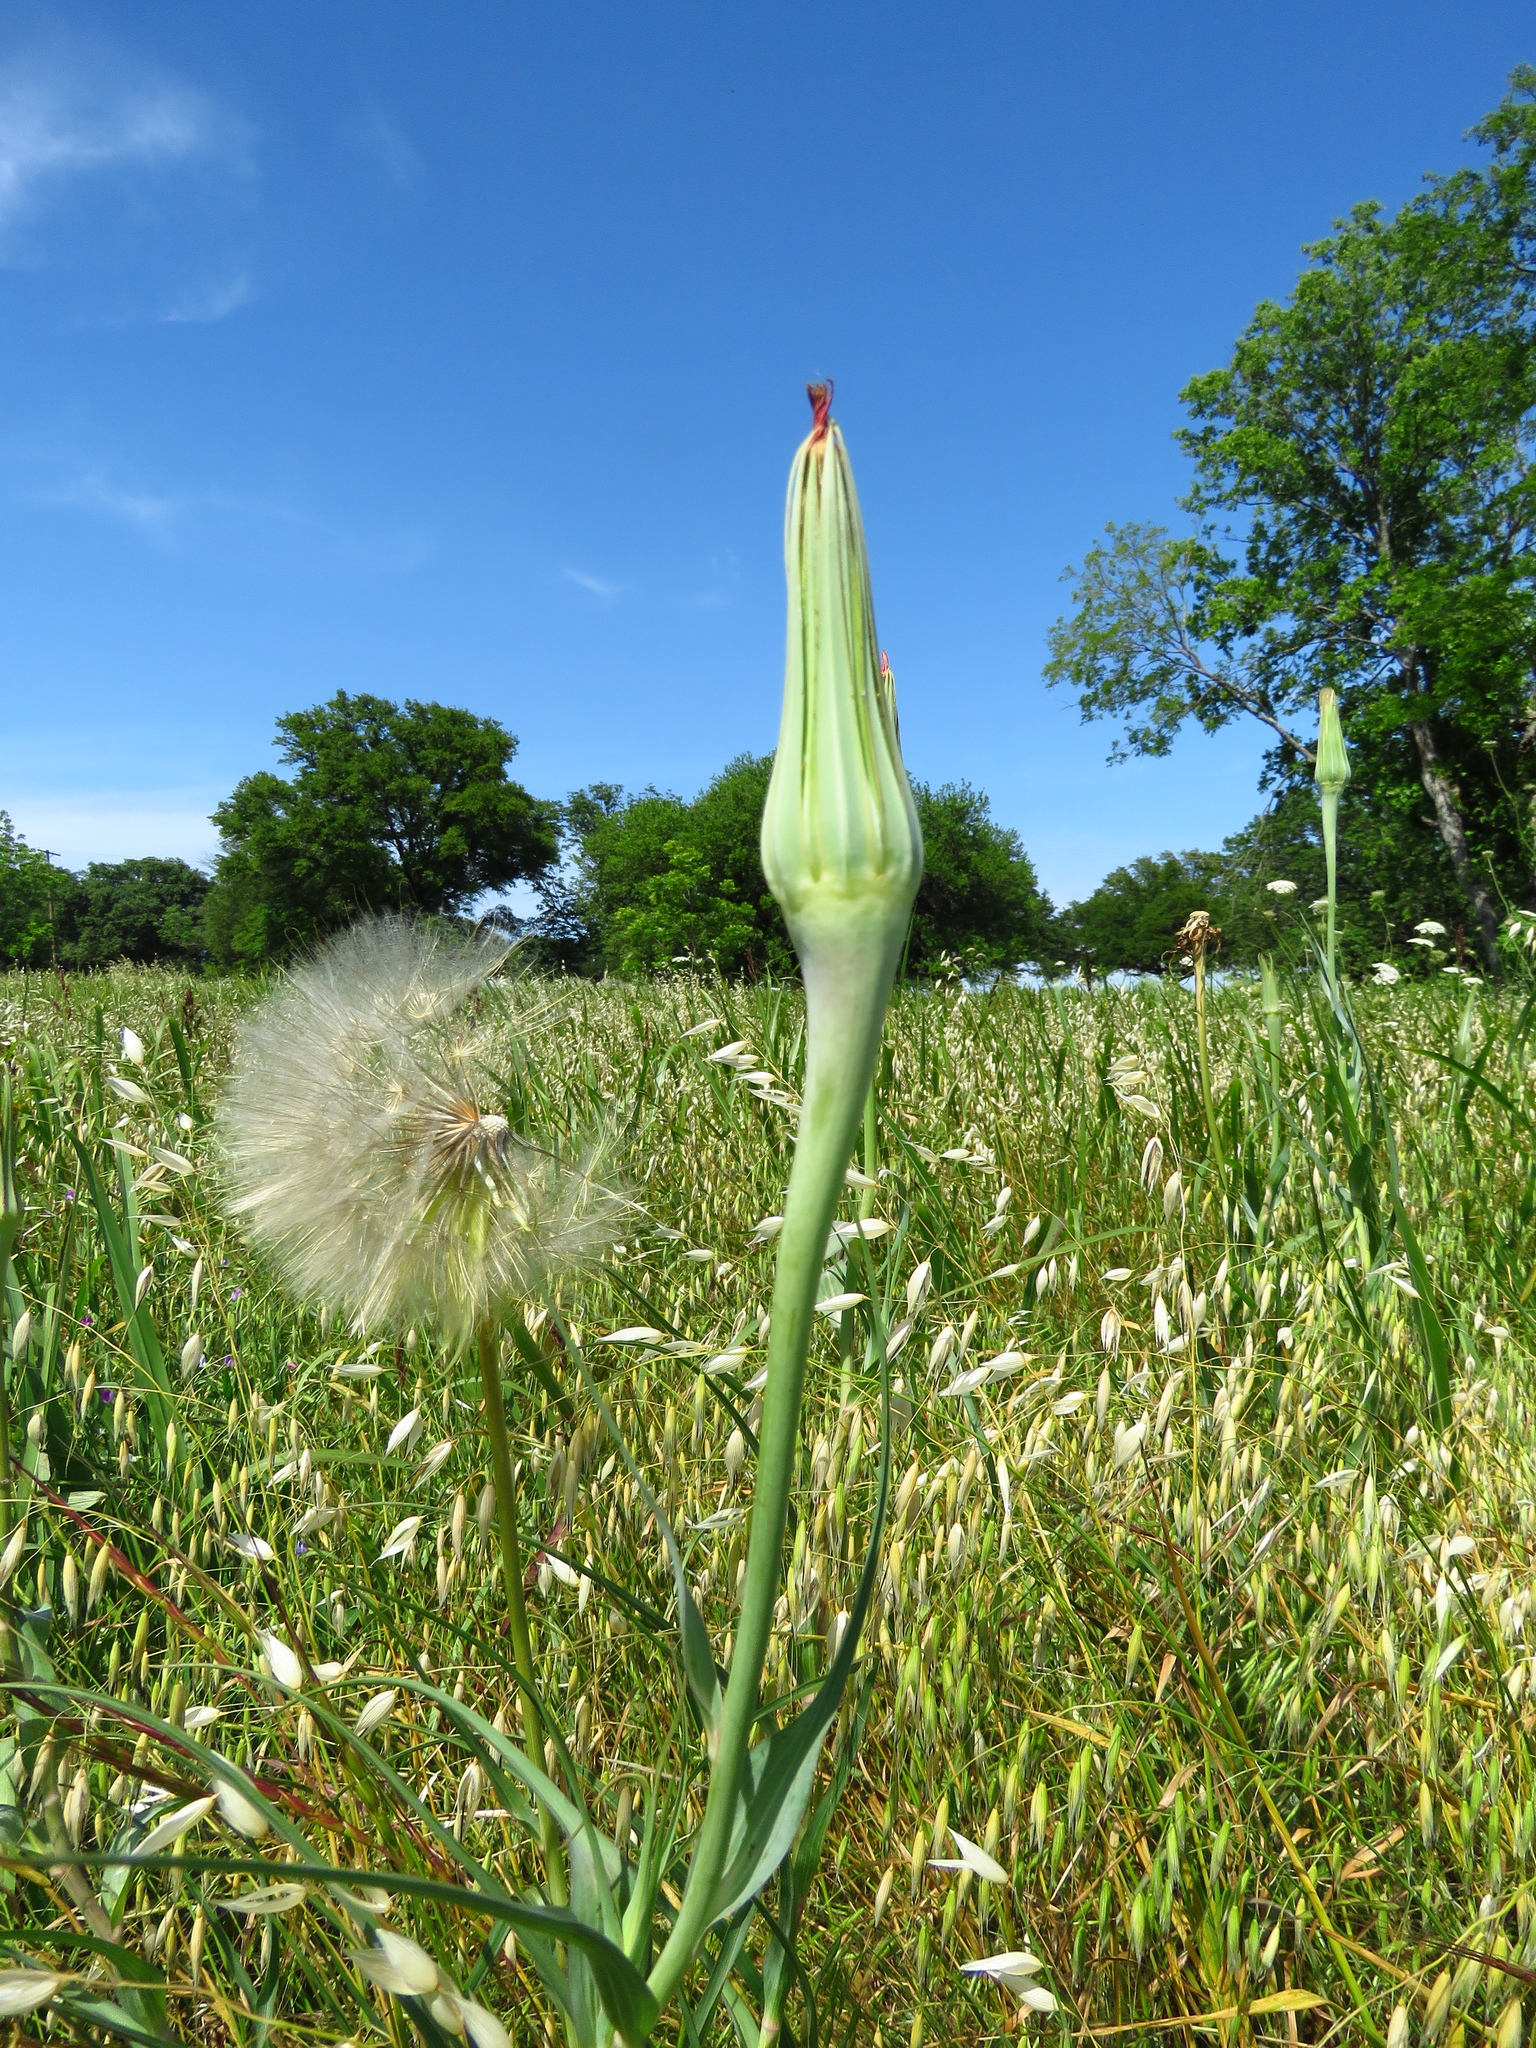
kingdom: Plantae
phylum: Tracheophyta
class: Magnoliopsida
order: Asterales
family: Asteraceae
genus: Tragopogon
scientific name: Tragopogon dubius
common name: Yellow salsify
